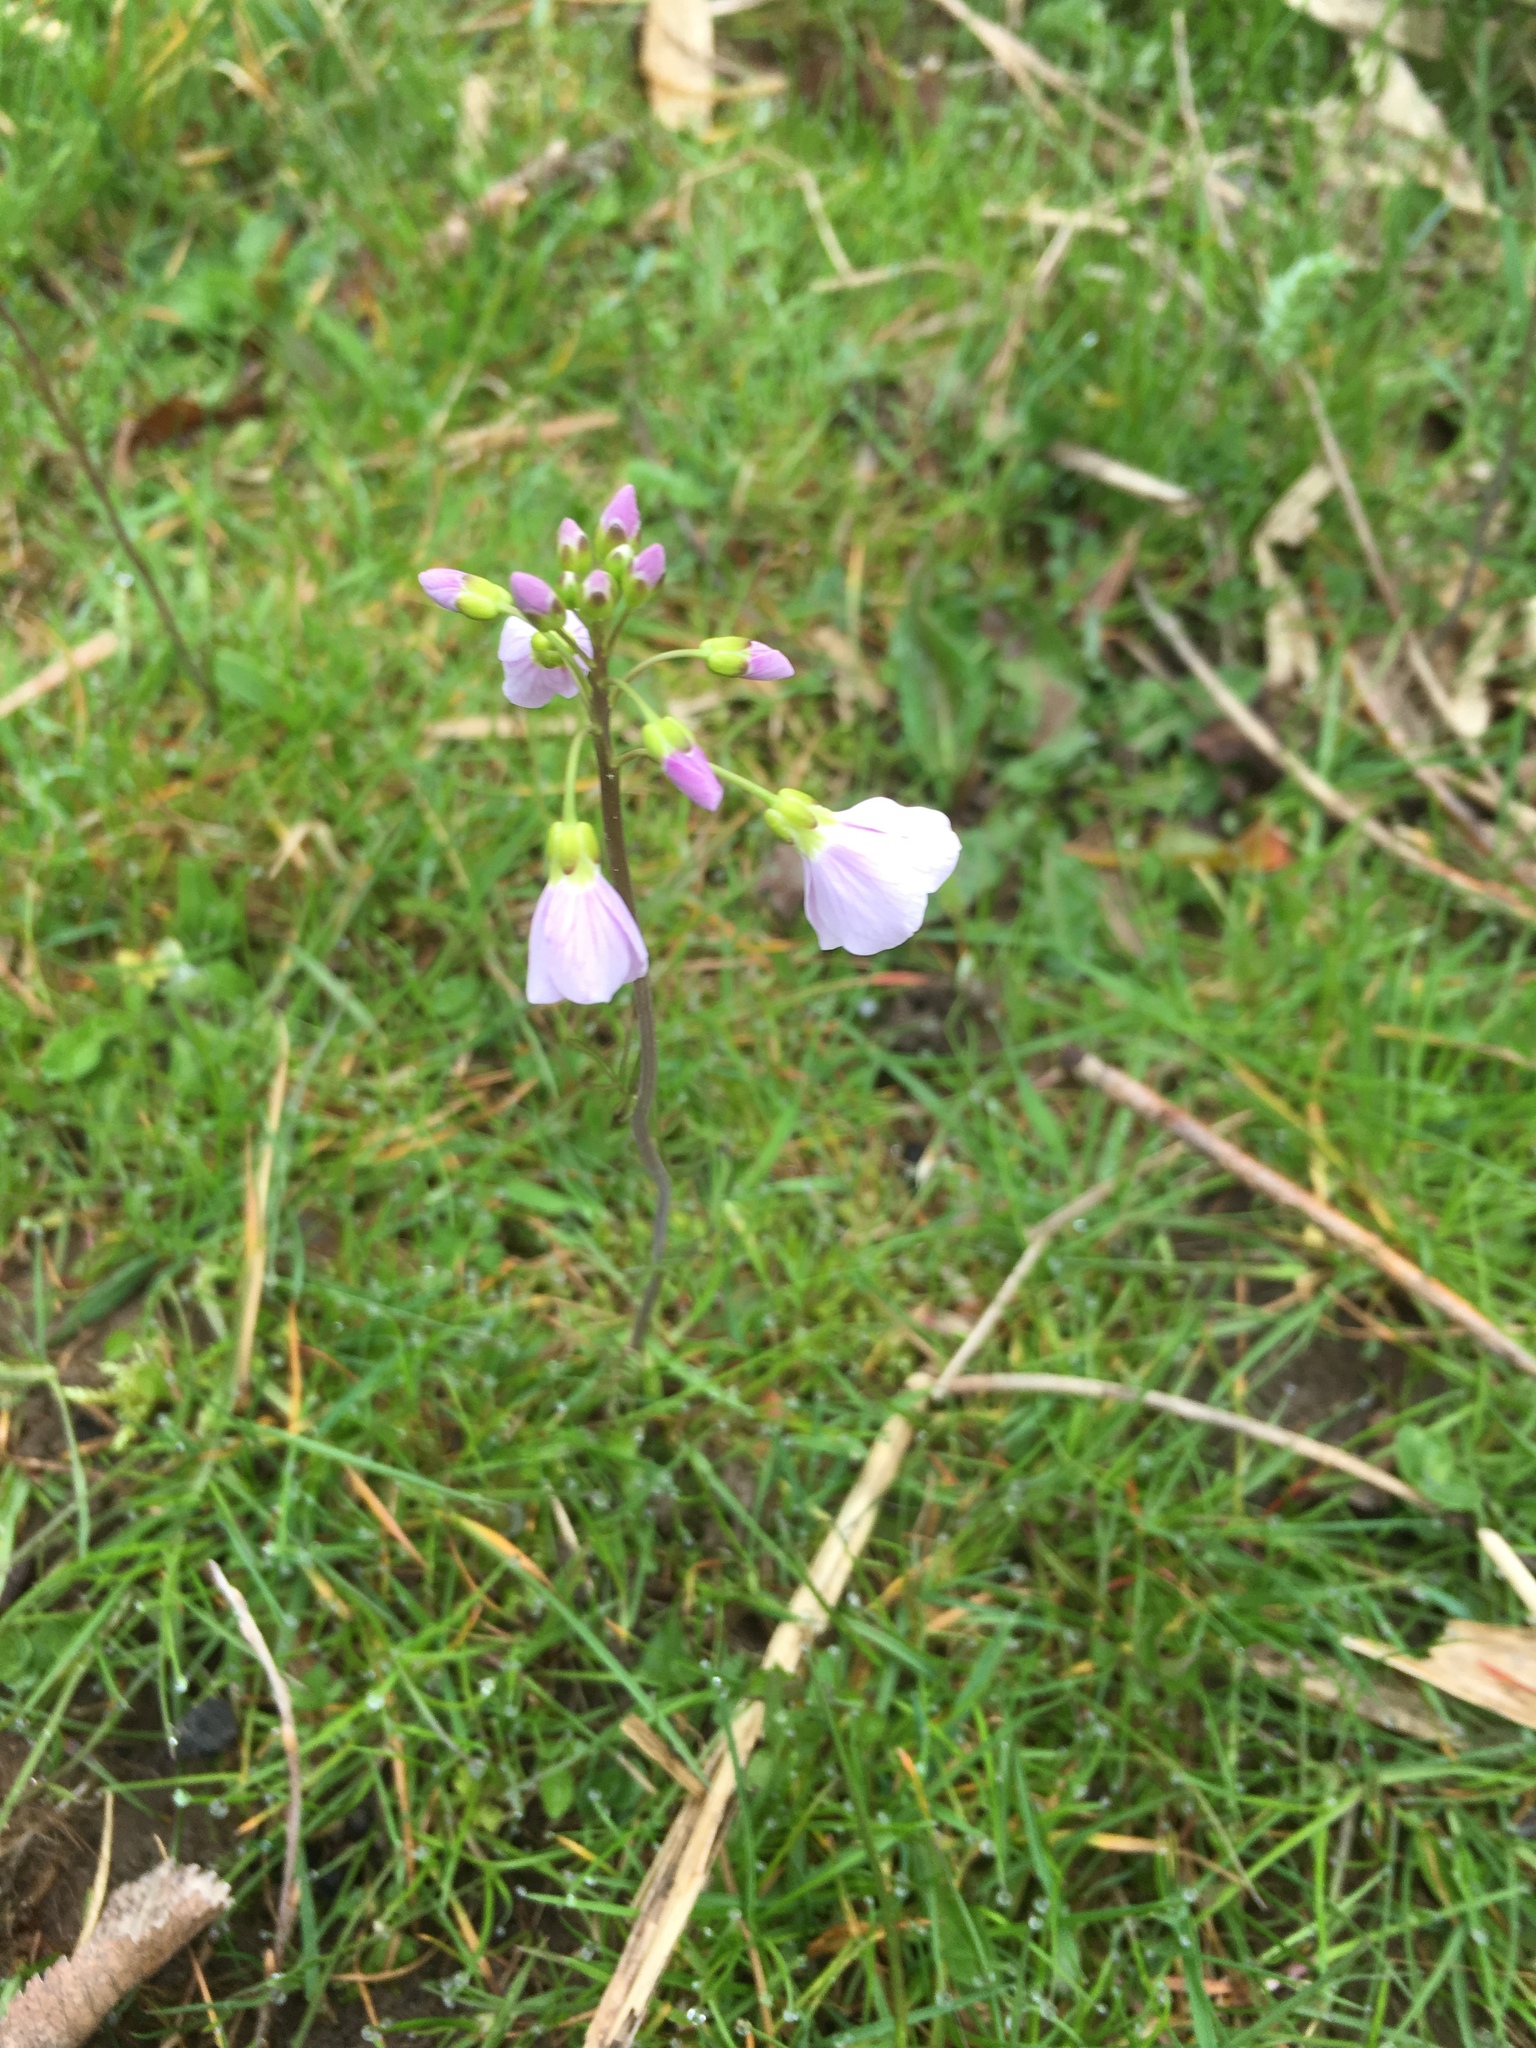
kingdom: Plantae
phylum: Tracheophyta
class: Magnoliopsida
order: Brassicales
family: Brassicaceae
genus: Cardamine
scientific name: Cardamine pratensis
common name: Cuckoo flower
